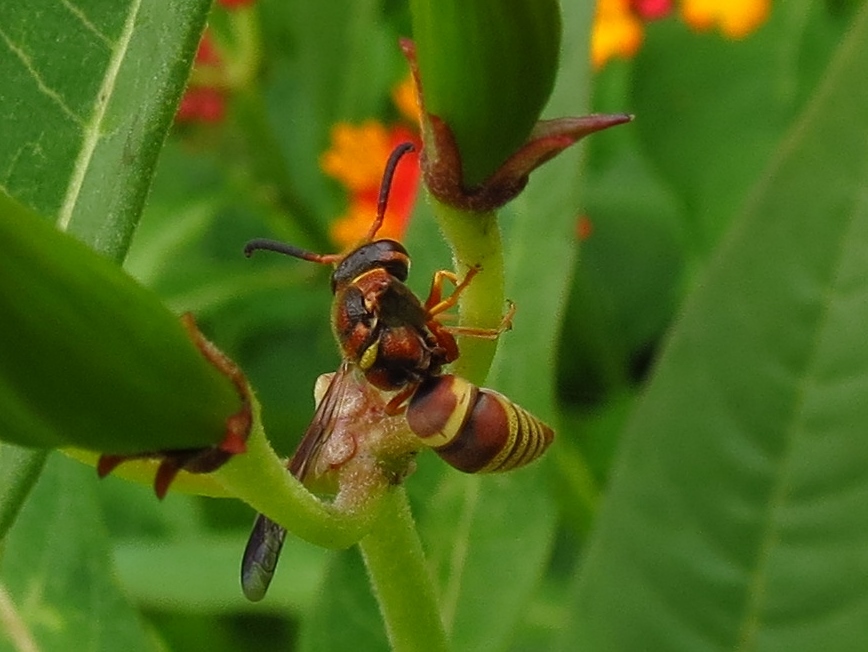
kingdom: Animalia
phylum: Arthropoda
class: Insecta
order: Hymenoptera
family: Eumenidae
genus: Euodynerus
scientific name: Euodynerus pratensis
